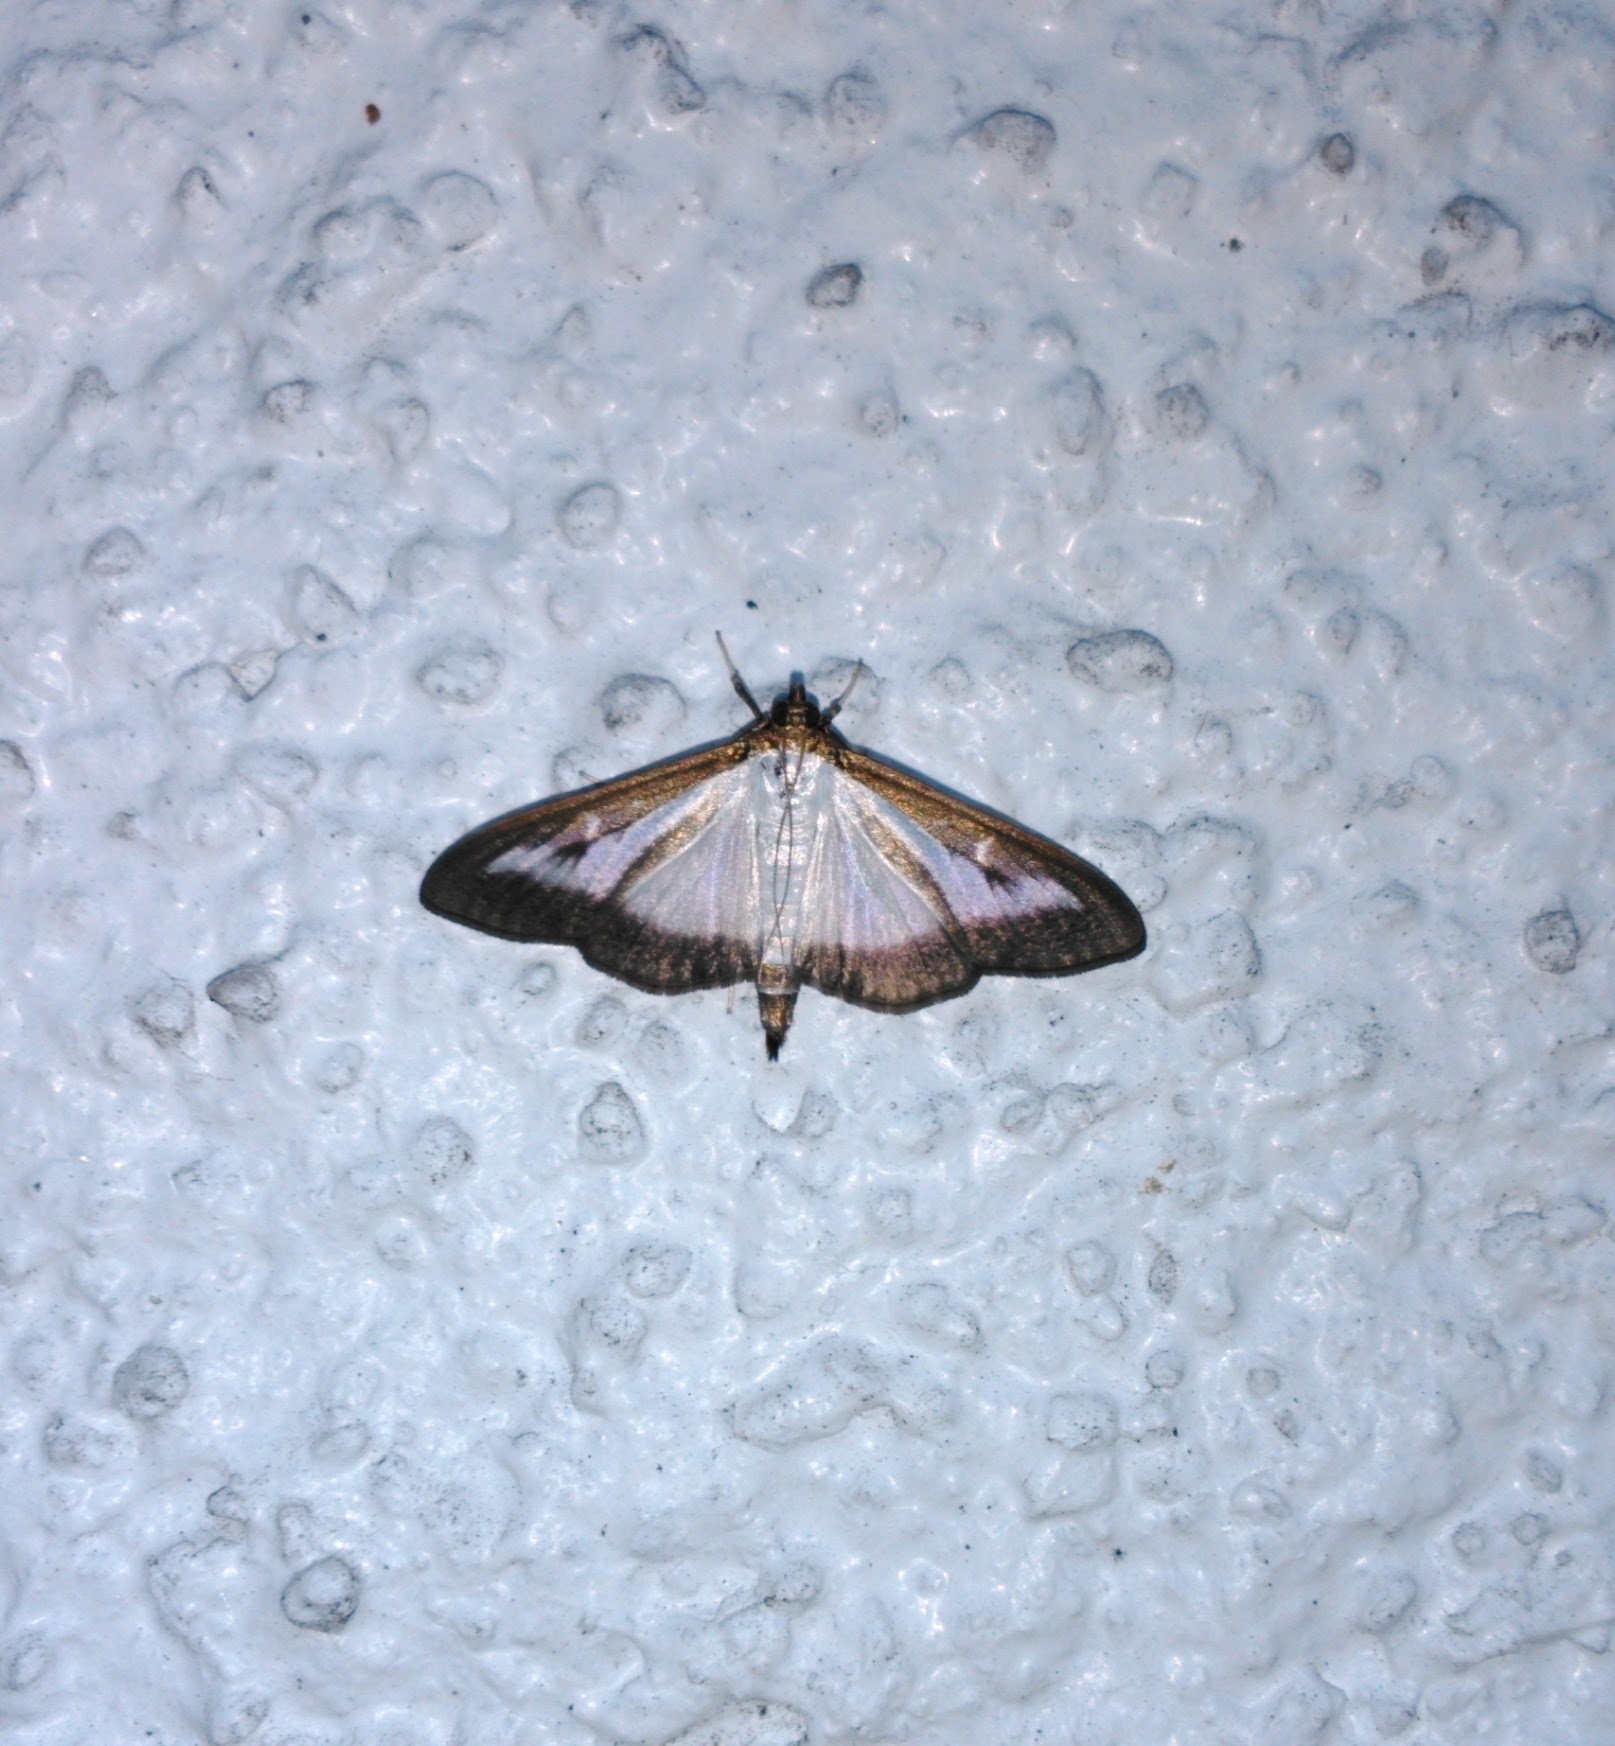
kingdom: Animalia
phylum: Arthropoda
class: Insecta
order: Lepidoptera
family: Crambidae
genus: Cydalima
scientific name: Cydalima perspectalis
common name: Box tree moth
